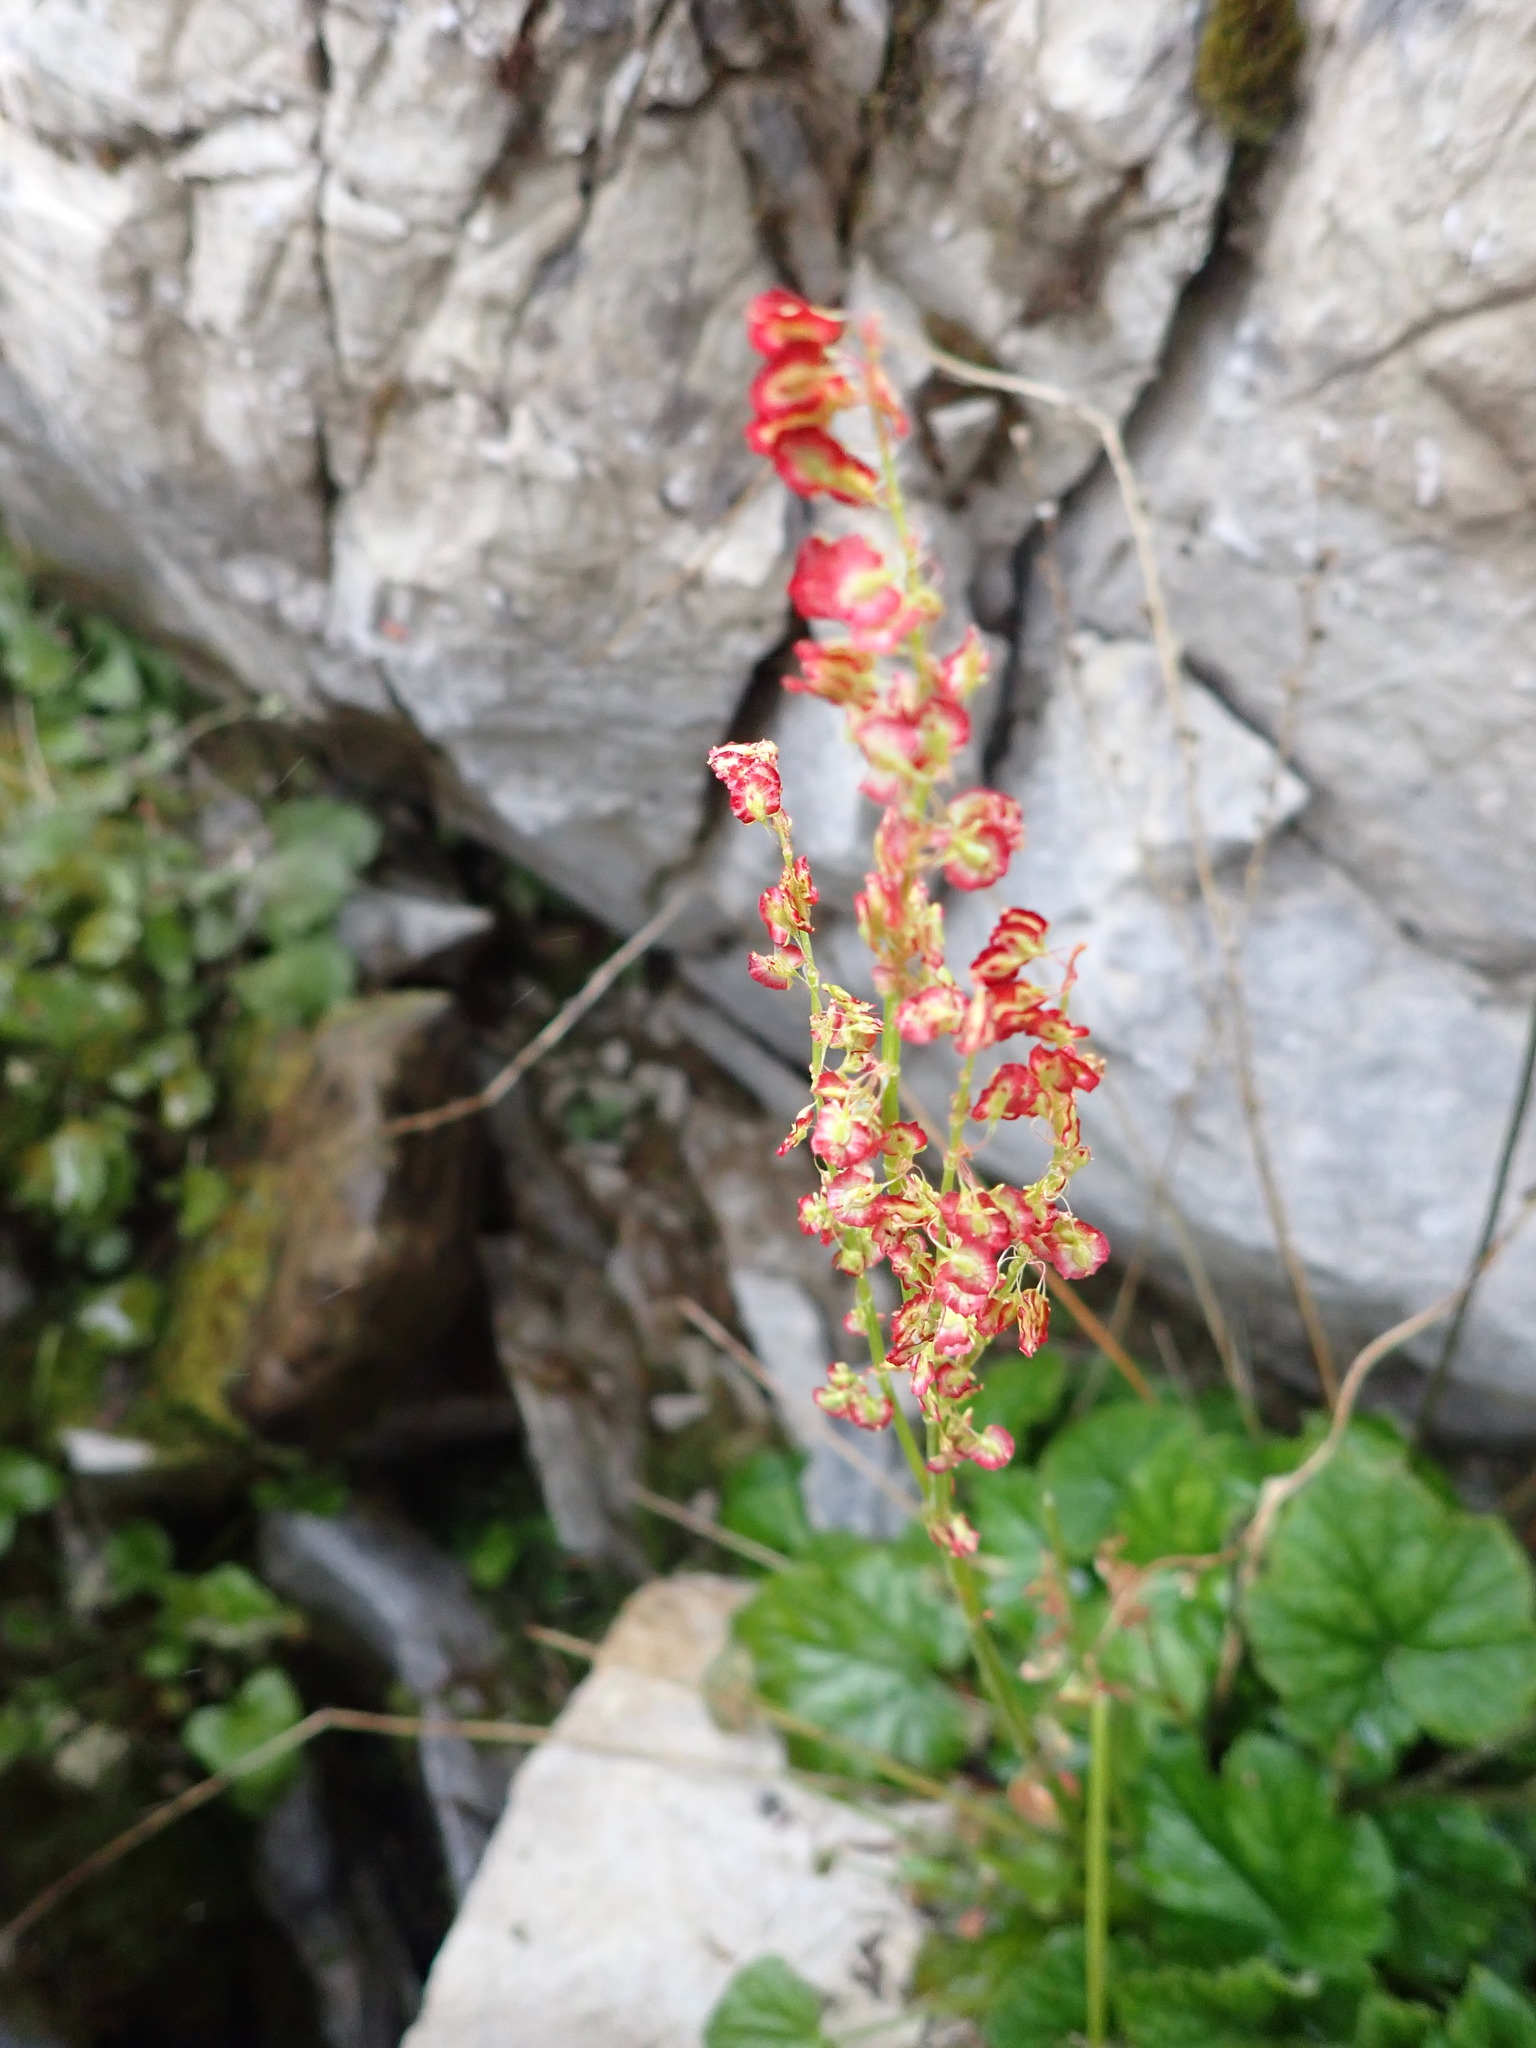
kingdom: Plantae
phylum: Tracheophyta
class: Magnoliopsida
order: Caryophyllales
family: Polygonaceae
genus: Oxyria
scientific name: Oxyria digyna
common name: Alpine mountain-sorrel
